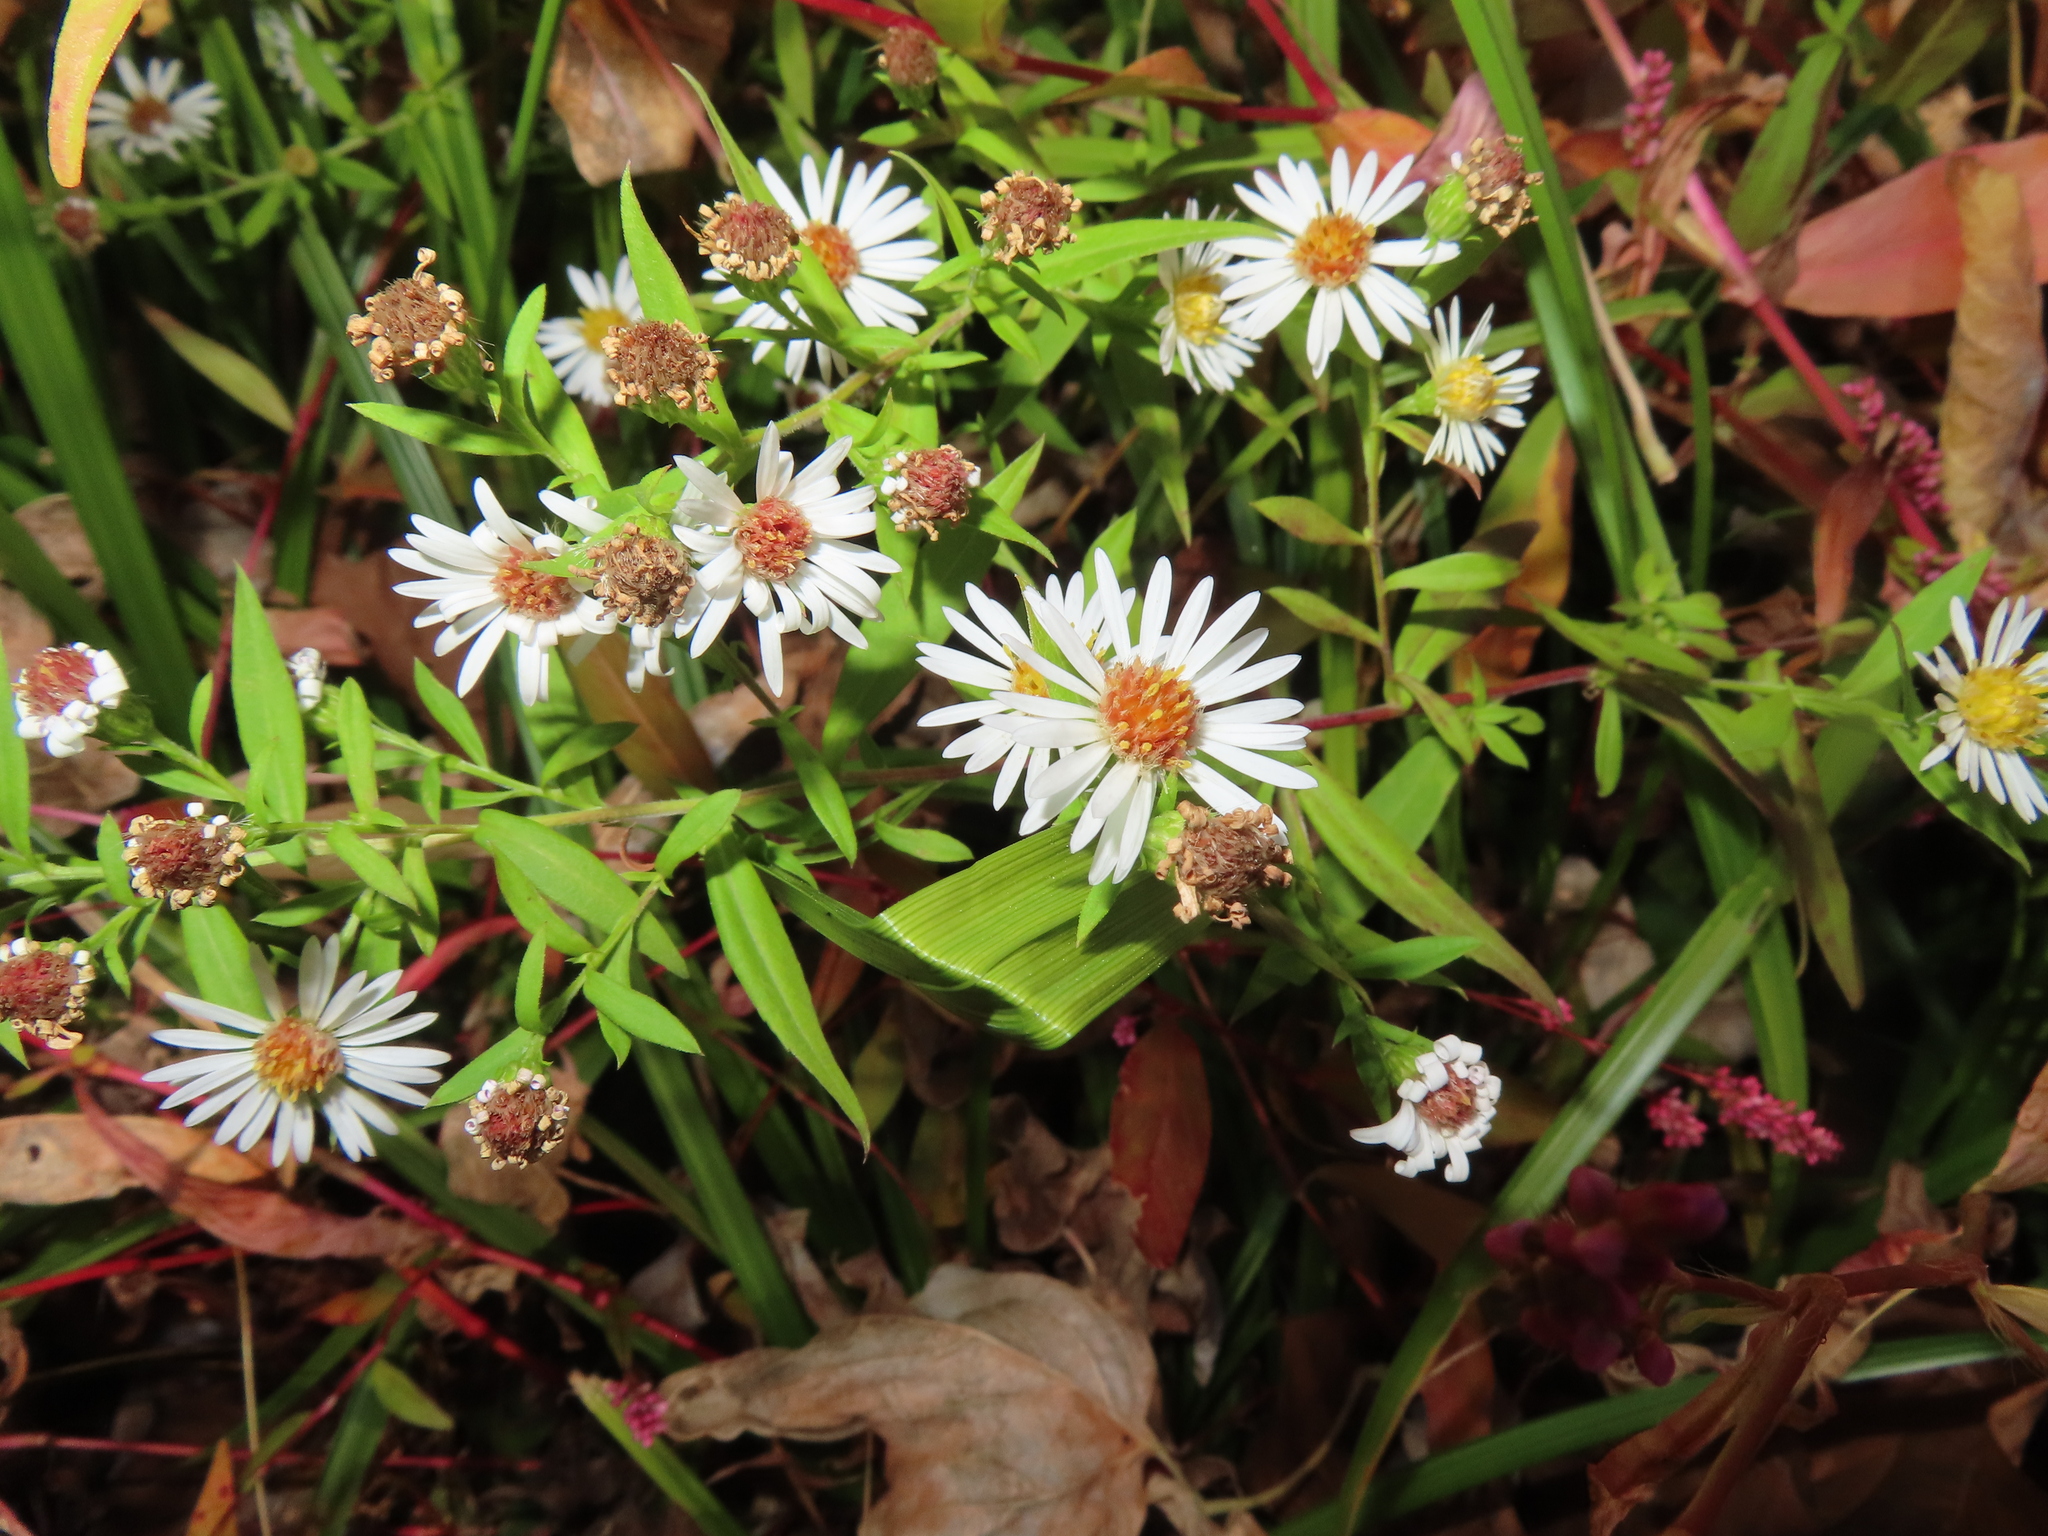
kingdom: Plantae
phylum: Tracheophyta
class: Magnoliopsida
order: Asterales
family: Asteraceae
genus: Symphyotrichum
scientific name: Symphyotrichum lanceolatum
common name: Panicled aster
